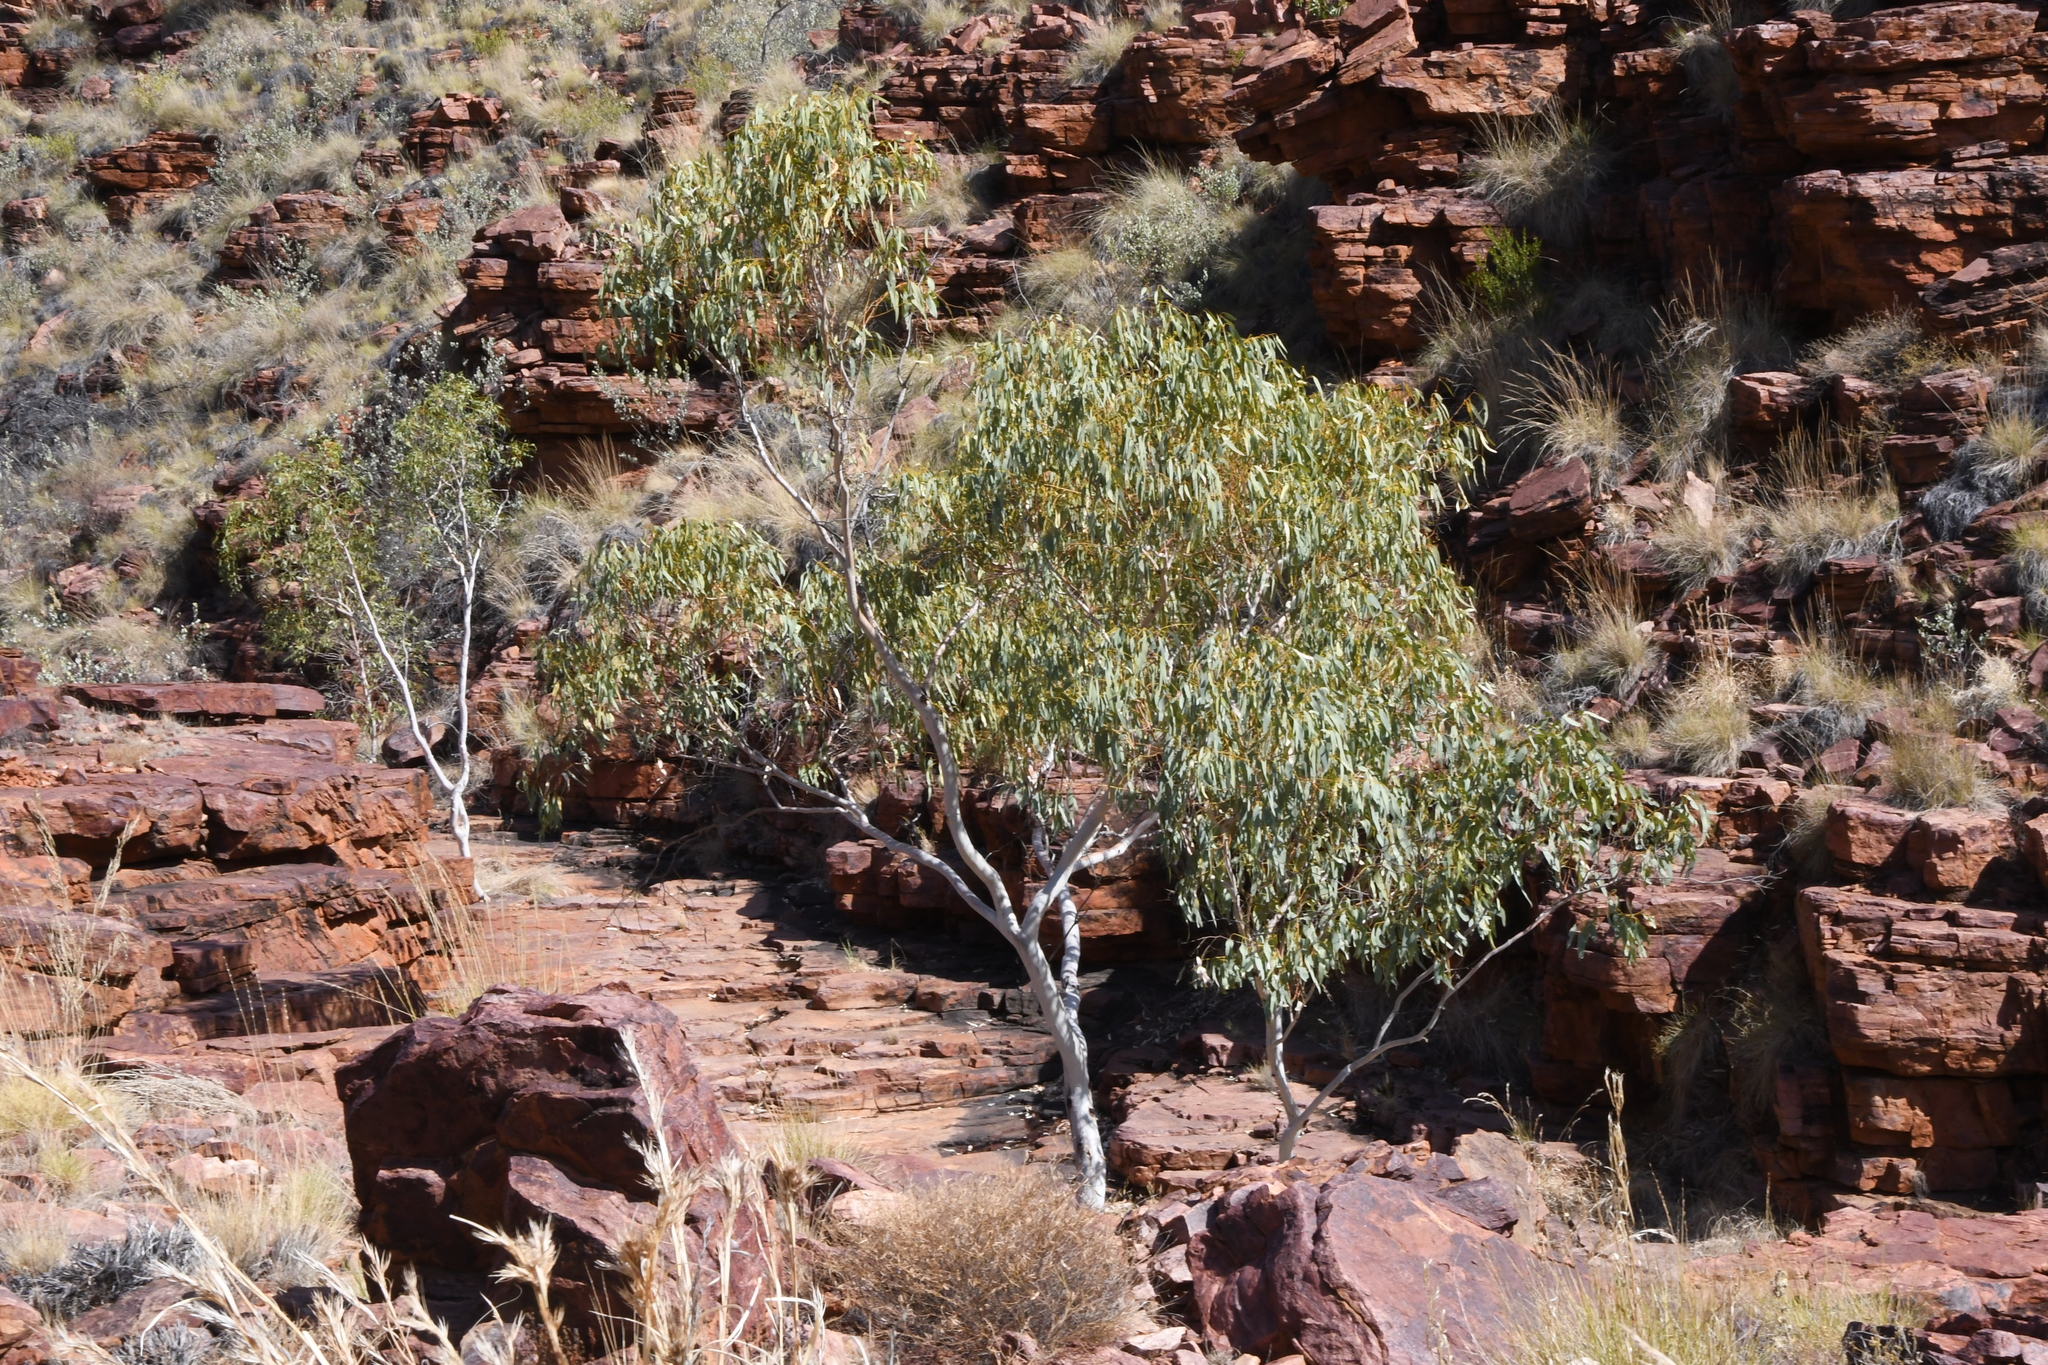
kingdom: Plantae
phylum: Tracheophyta
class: Magnoliopsida
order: Myrtales
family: Myrtaceae
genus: Eucalyptus
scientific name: Eucalyptus camaldulensis
